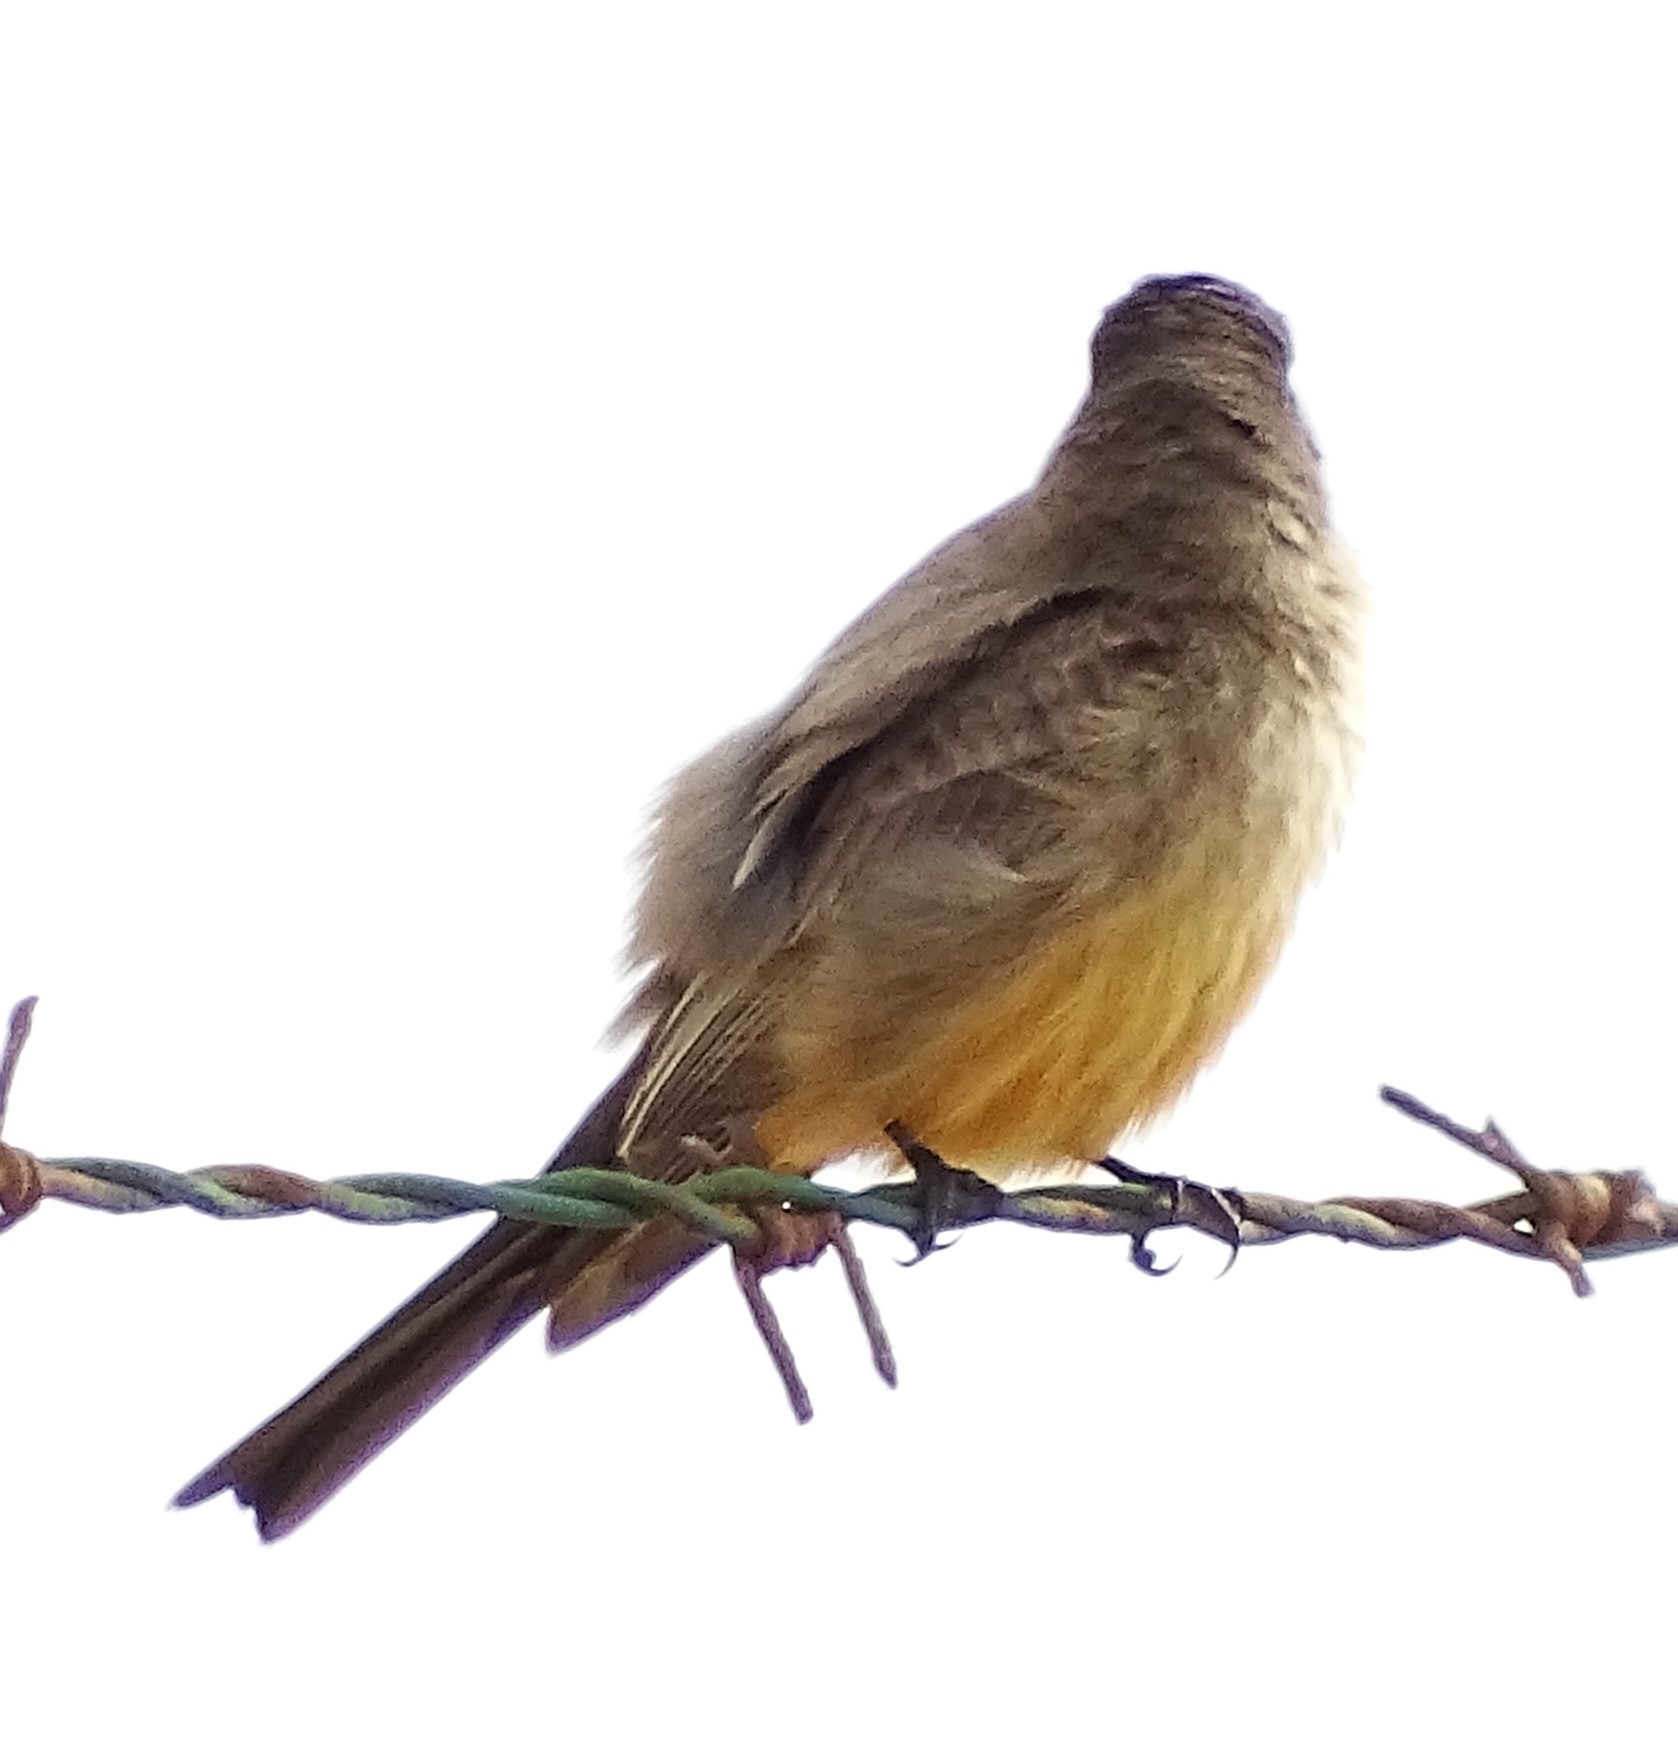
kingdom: Animalia
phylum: Chordata
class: Aves
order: Passeriformes
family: Tyrannidae
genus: Sayornis
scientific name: Sayornis saya
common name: Say's phoebe
